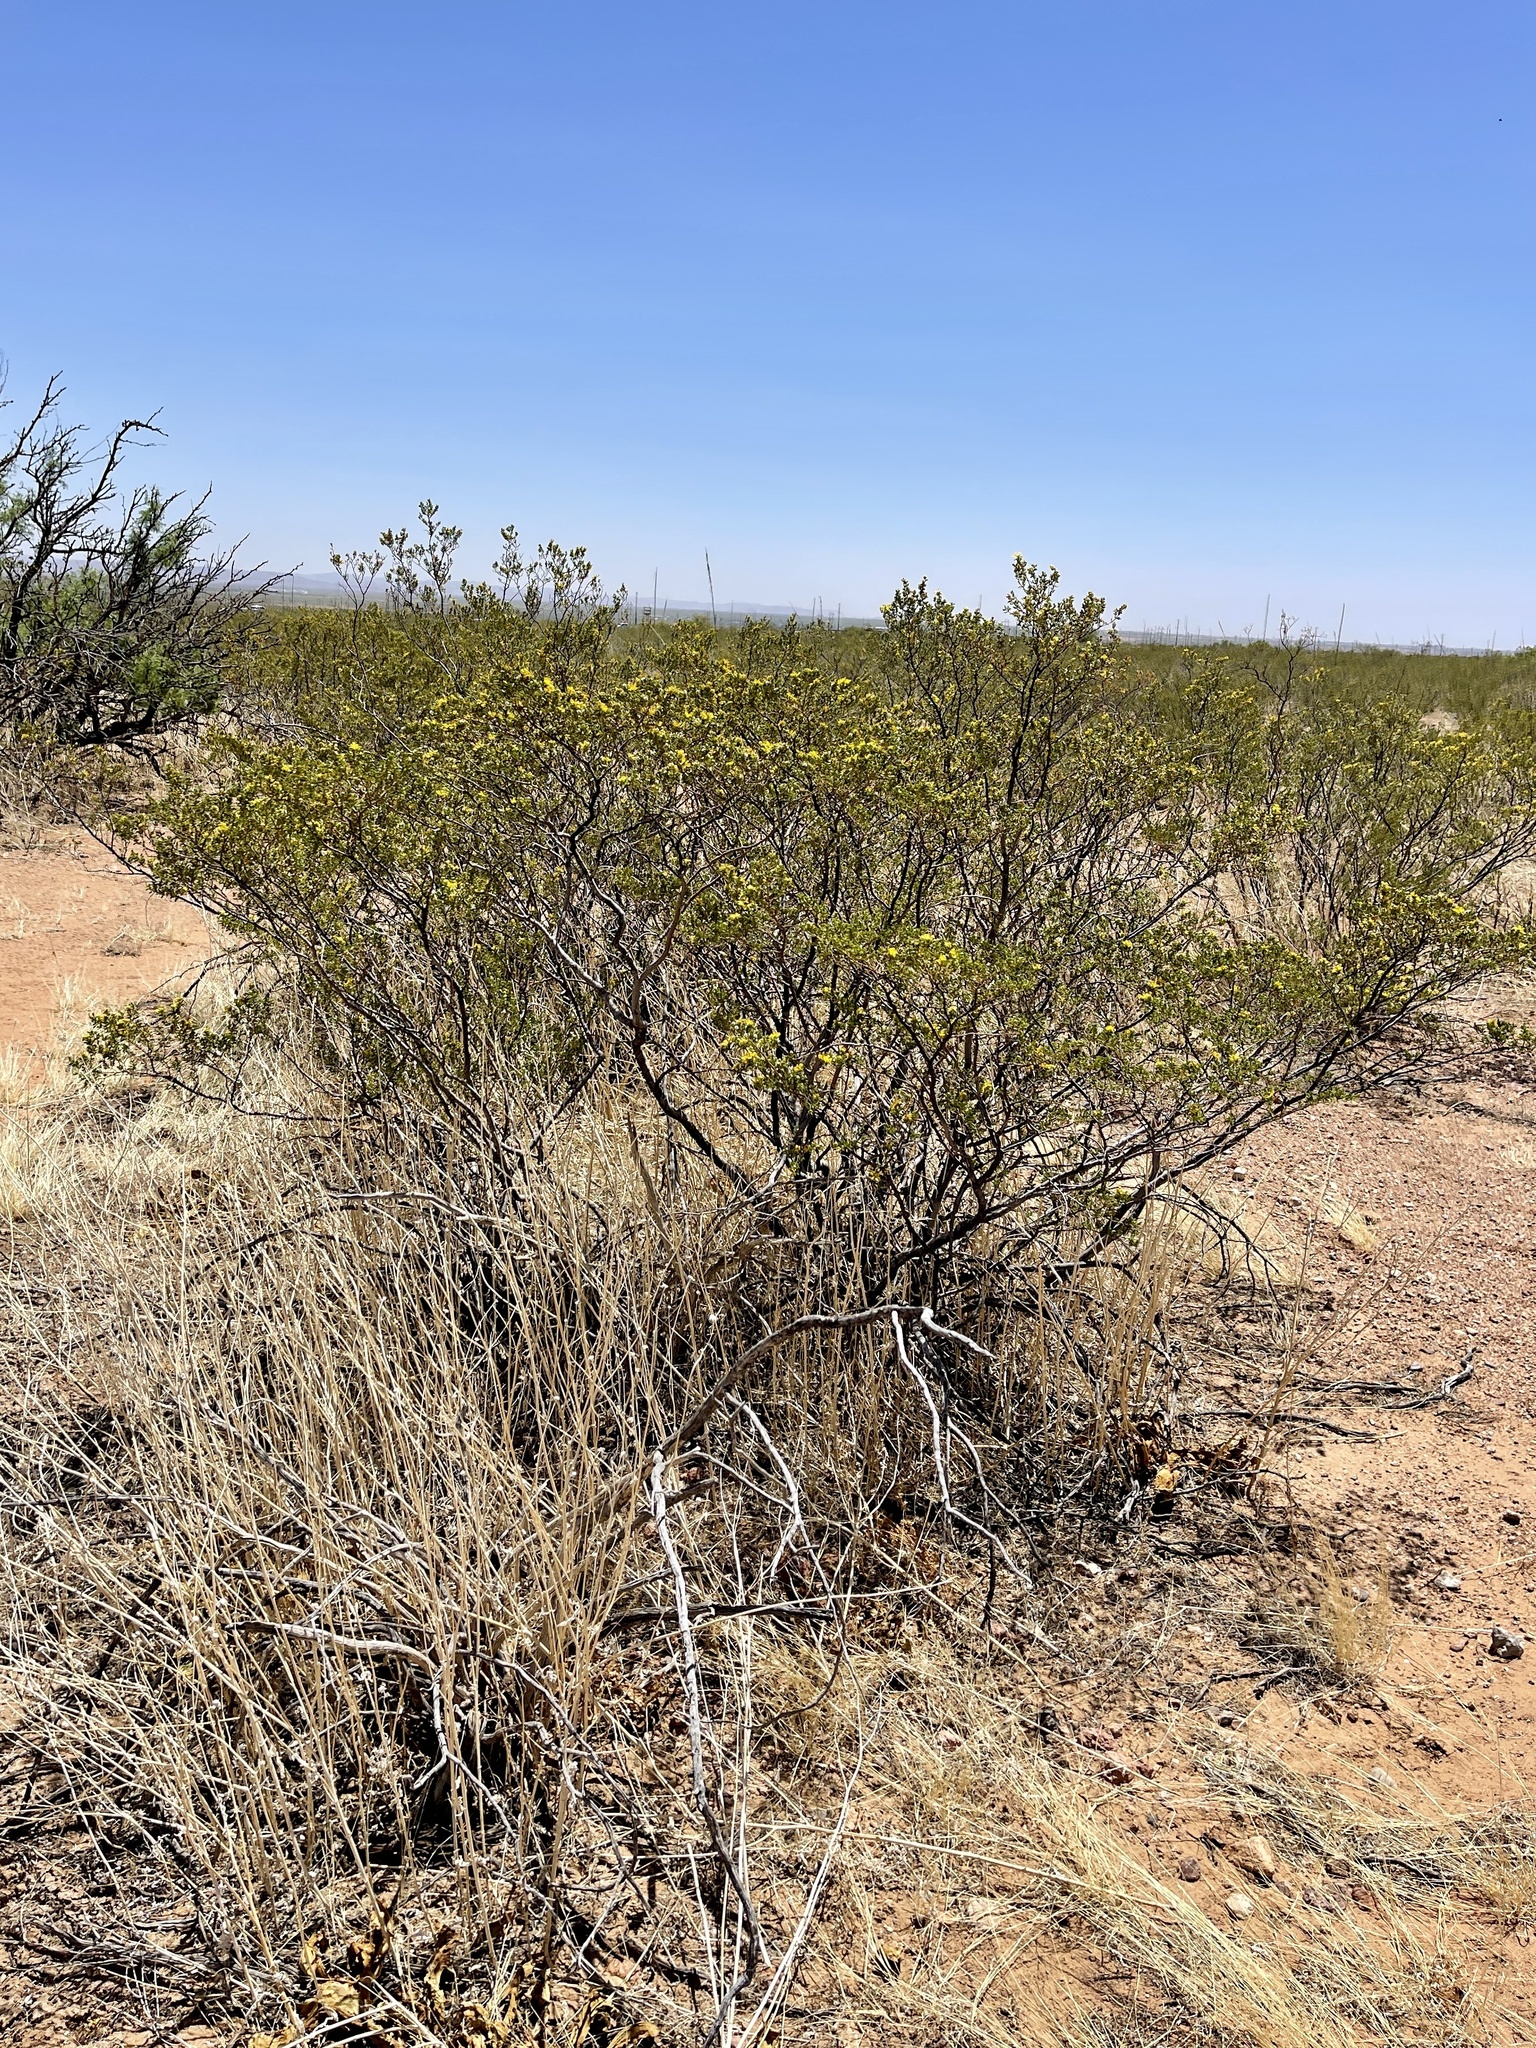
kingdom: Plantae
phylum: Tracheophyta
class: Magnoliopsida
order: Zygophyllales
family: Zygophyllaceae
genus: Larrea
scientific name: Larrea tridentata
